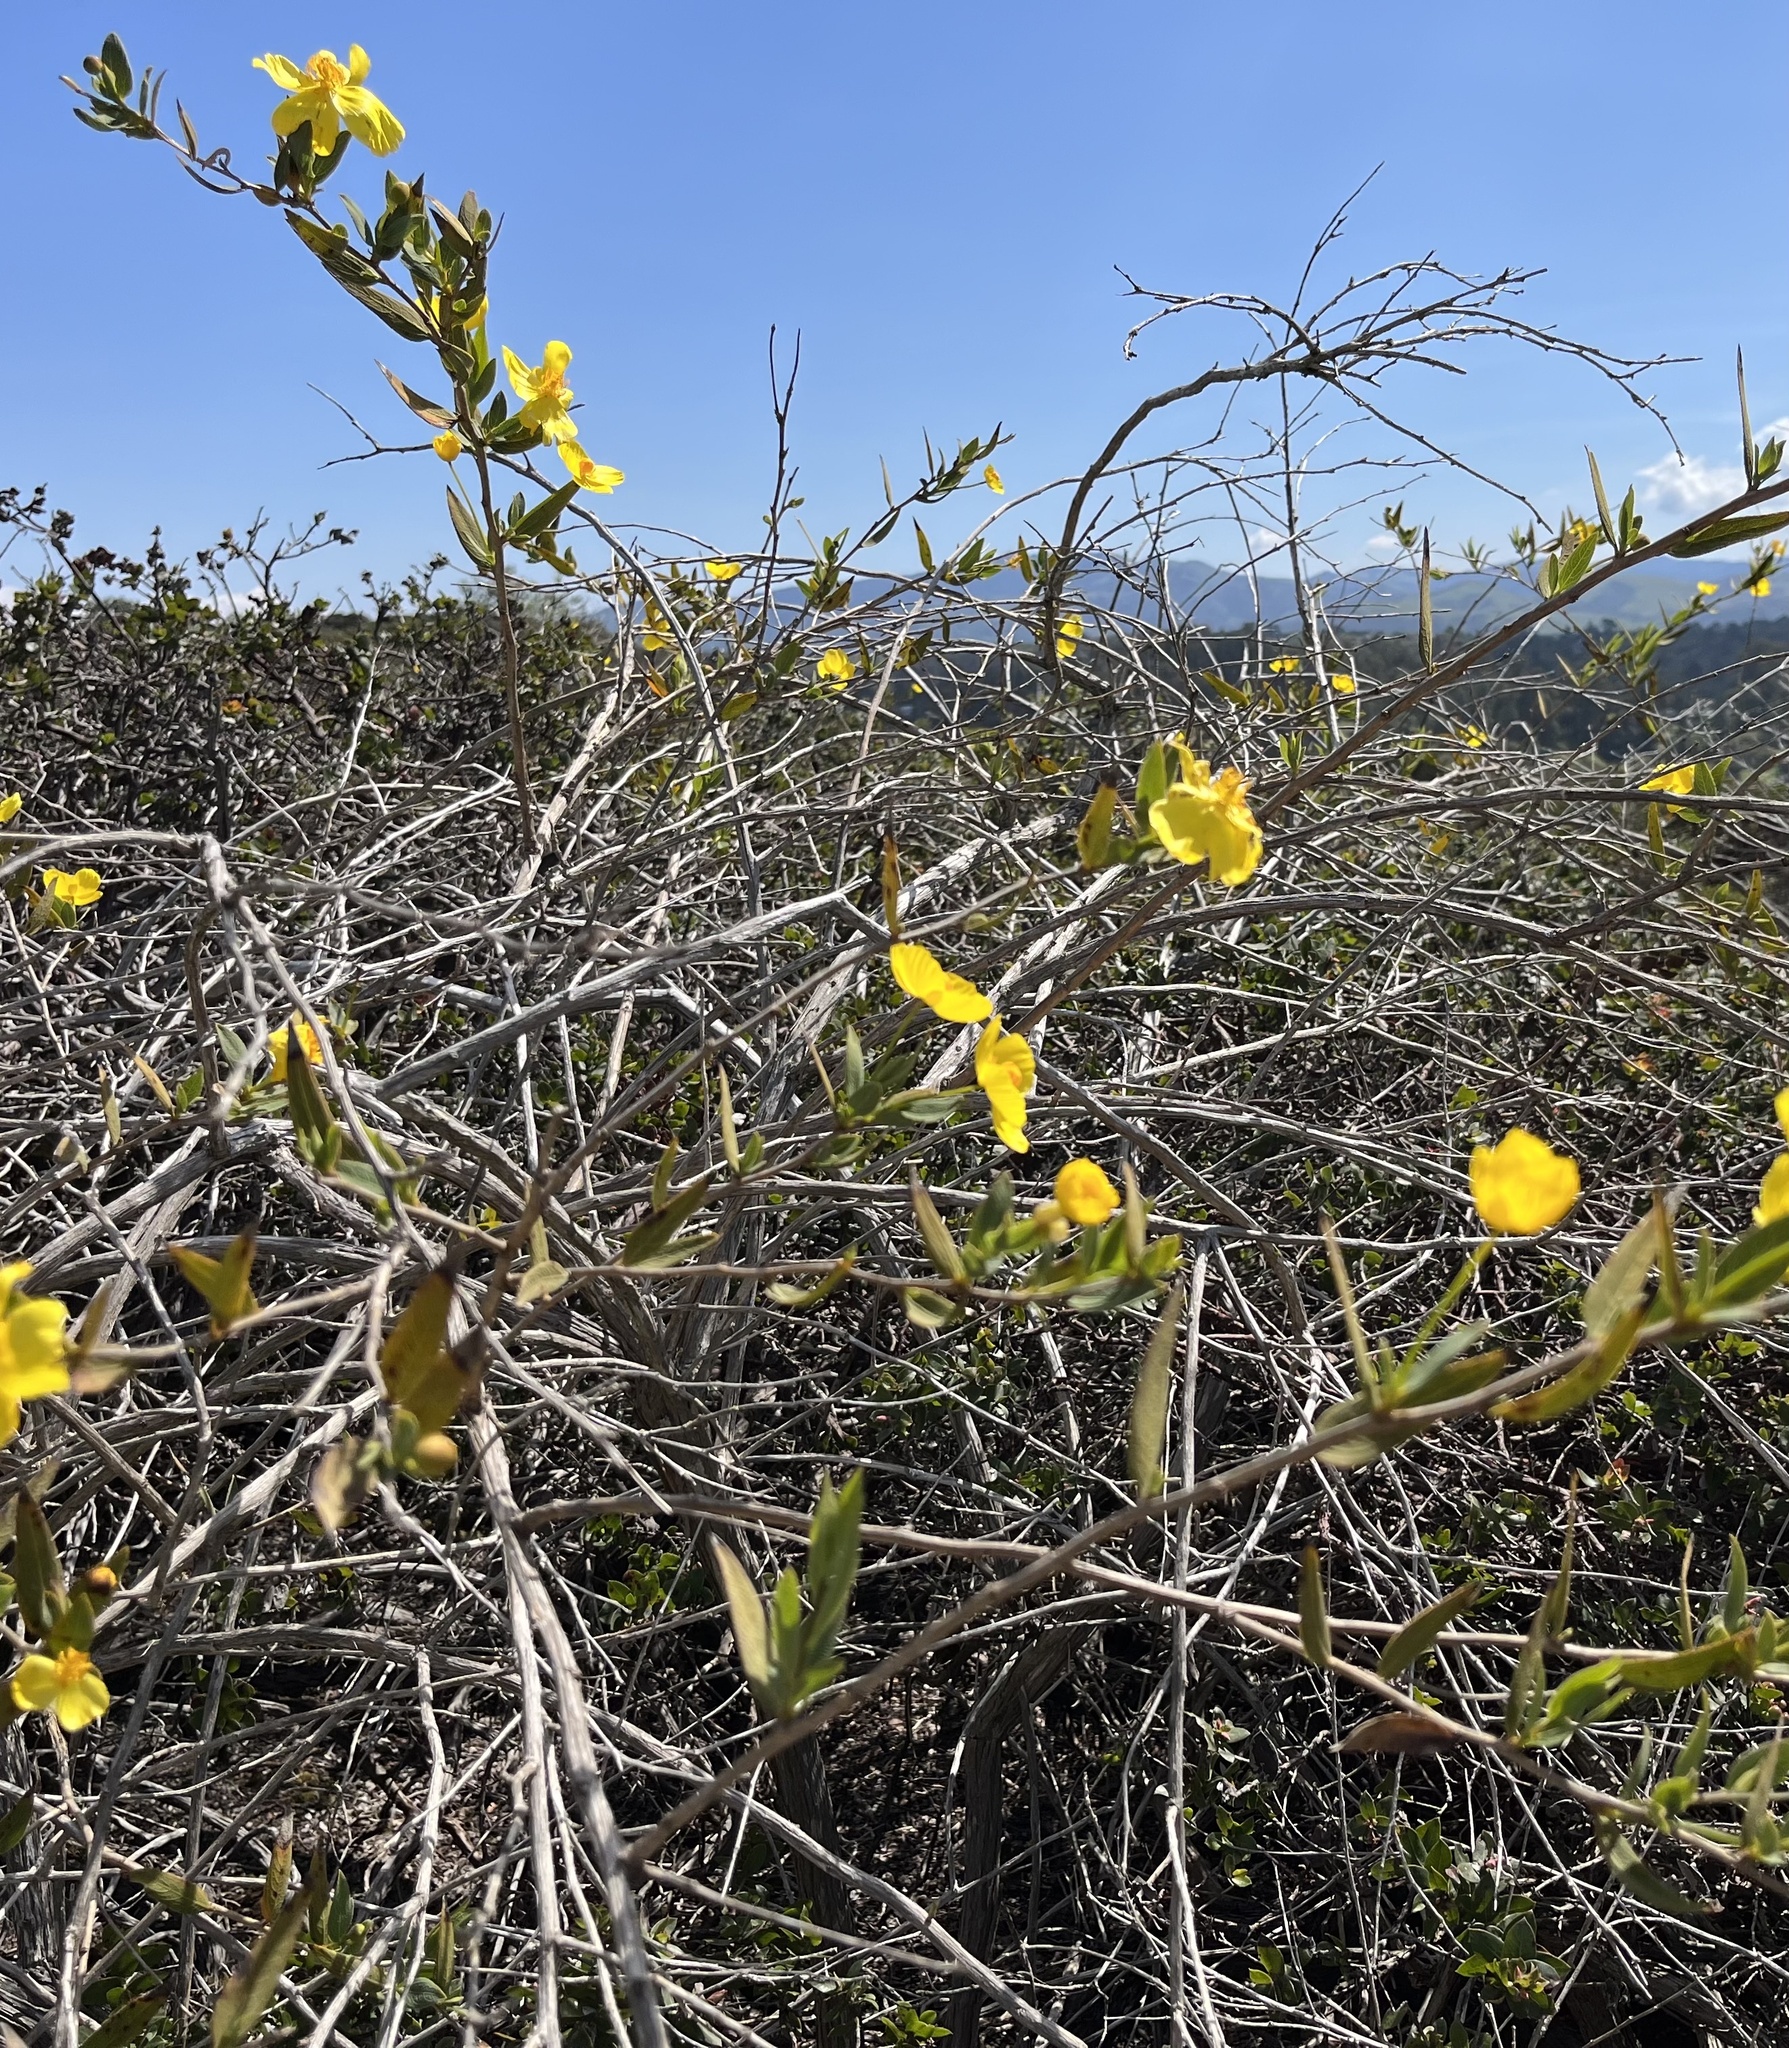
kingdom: Plantae
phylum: Tracheophyta
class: Magnoliopsida
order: Ranunculales
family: Papaveraceae
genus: Dendromecon
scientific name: Dendromecon rigida
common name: Tree poppy
